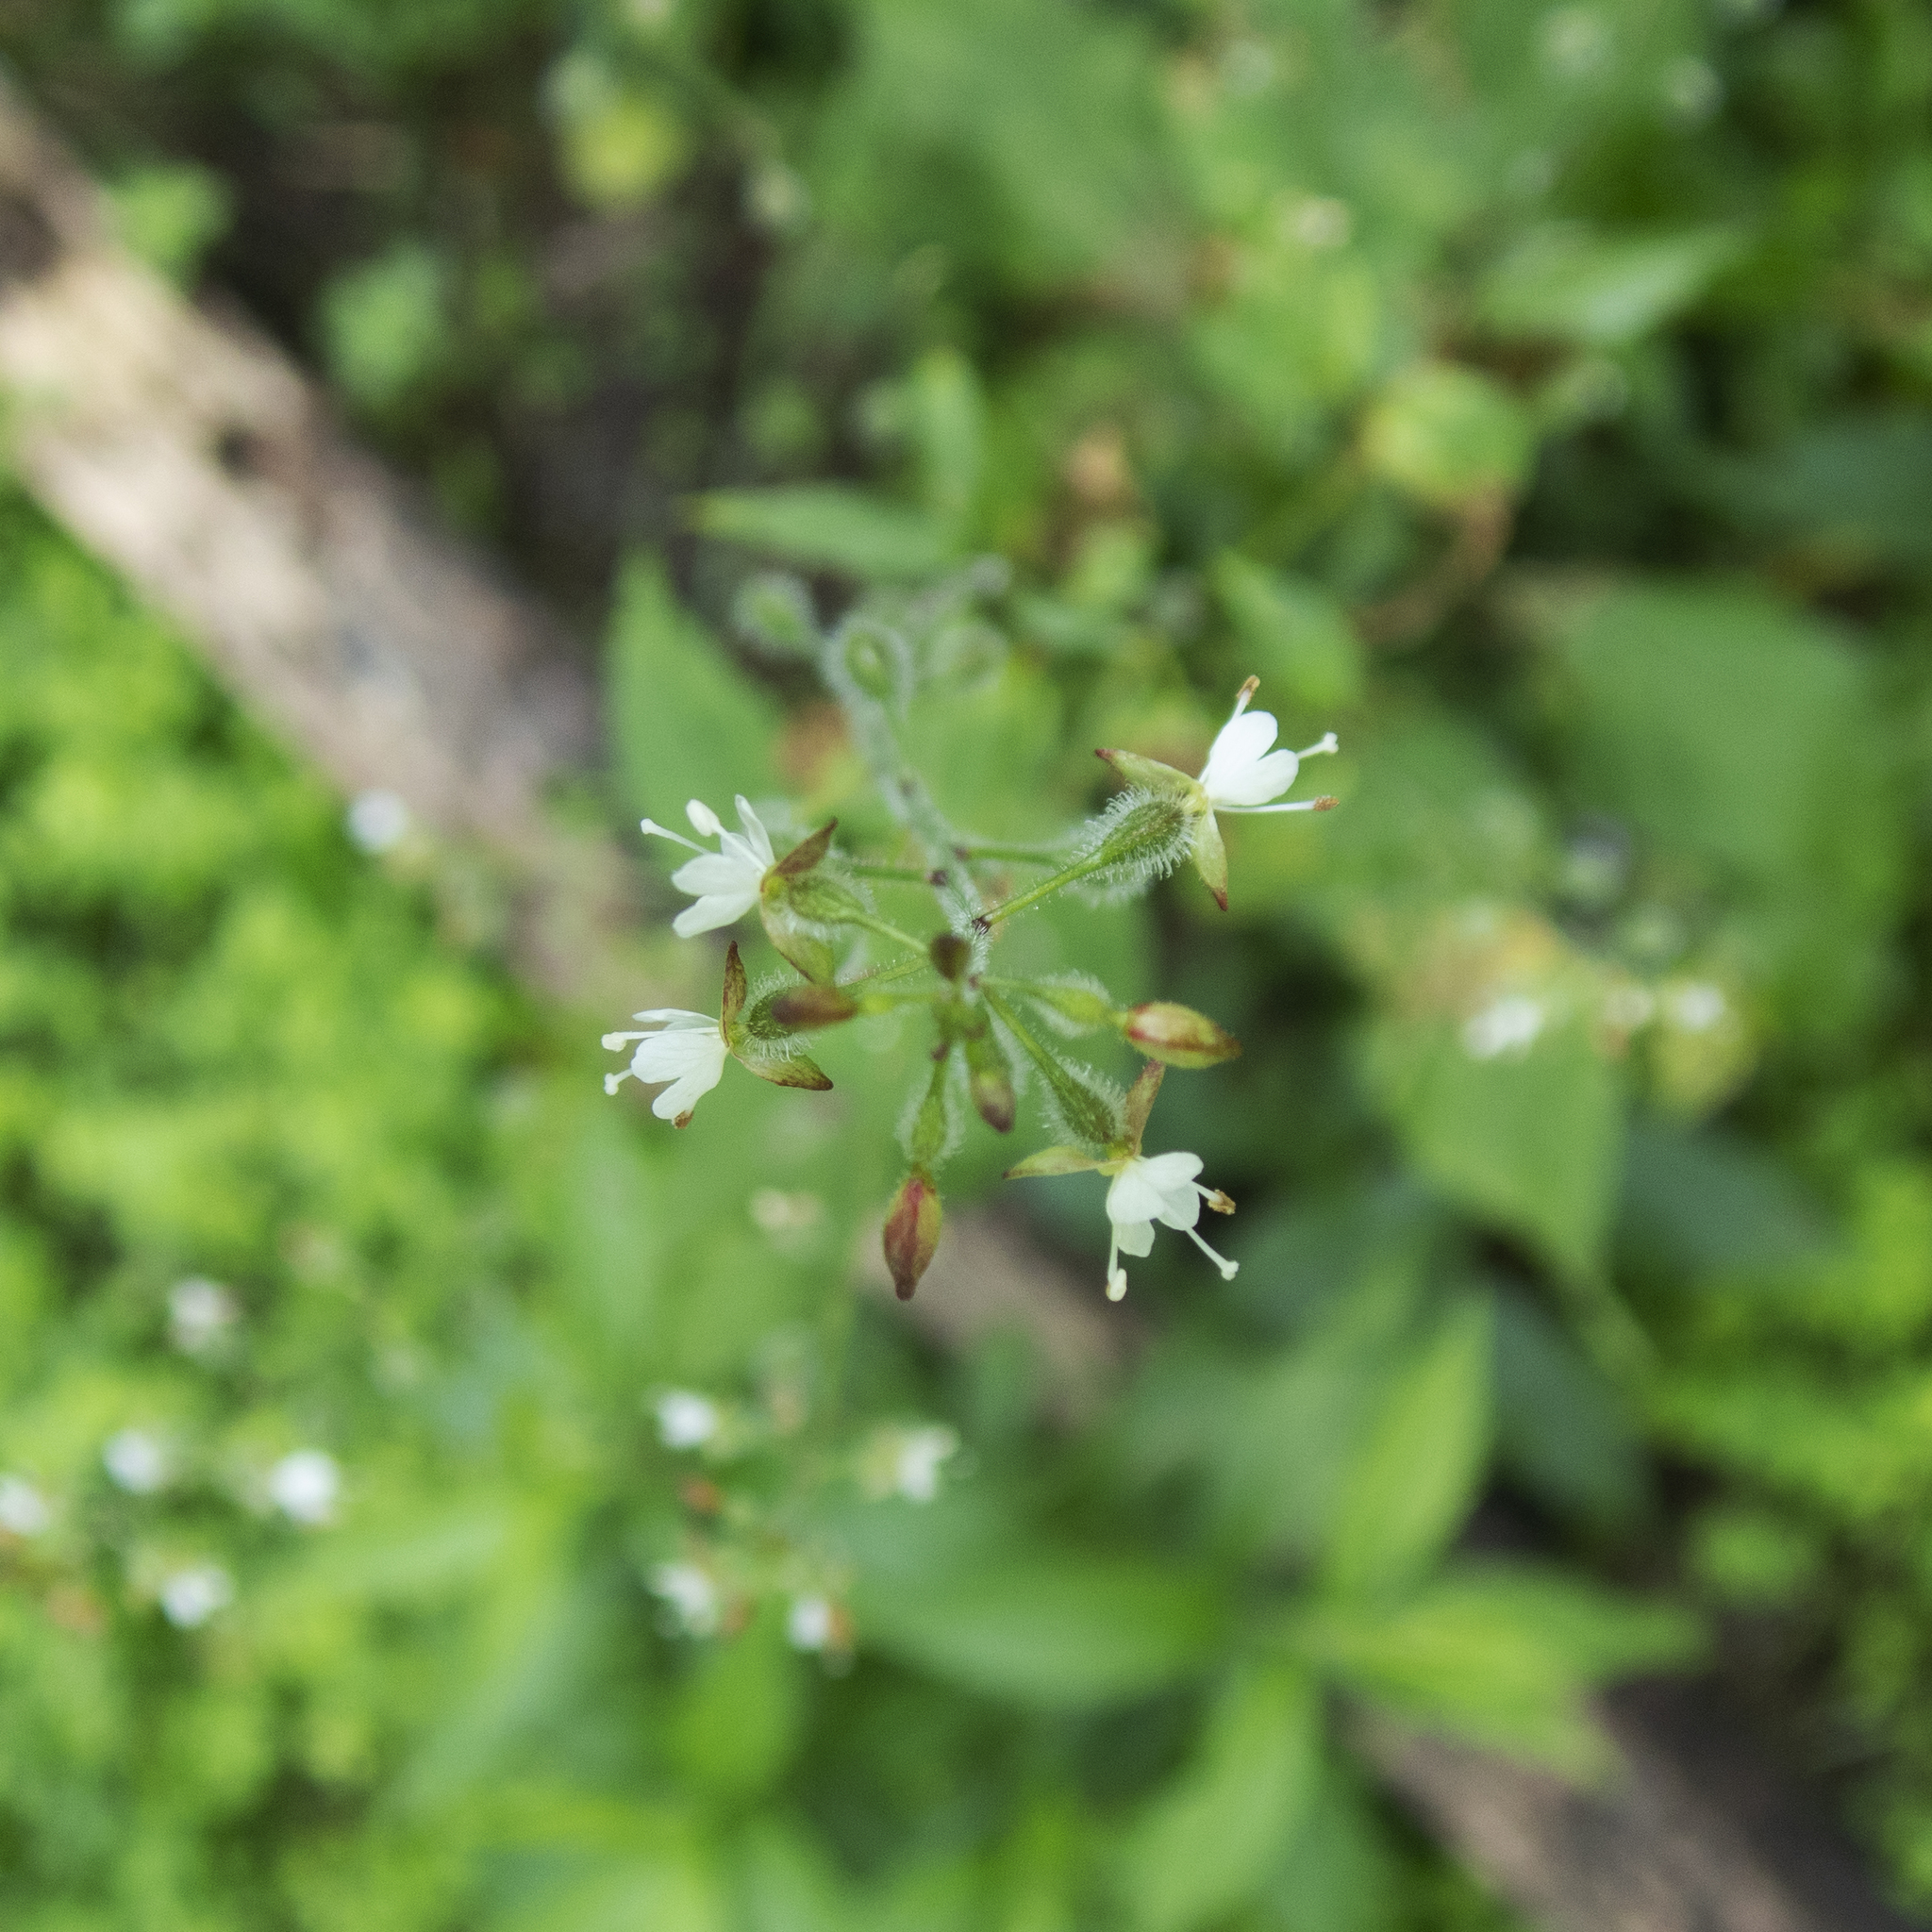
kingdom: Plantae
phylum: Tracheophyta
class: Magnoliopsida
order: Myrtales
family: Onagraceae
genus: Circaea
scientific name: Circaea canadensis
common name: Broad-leaved enchanter's nightshade
